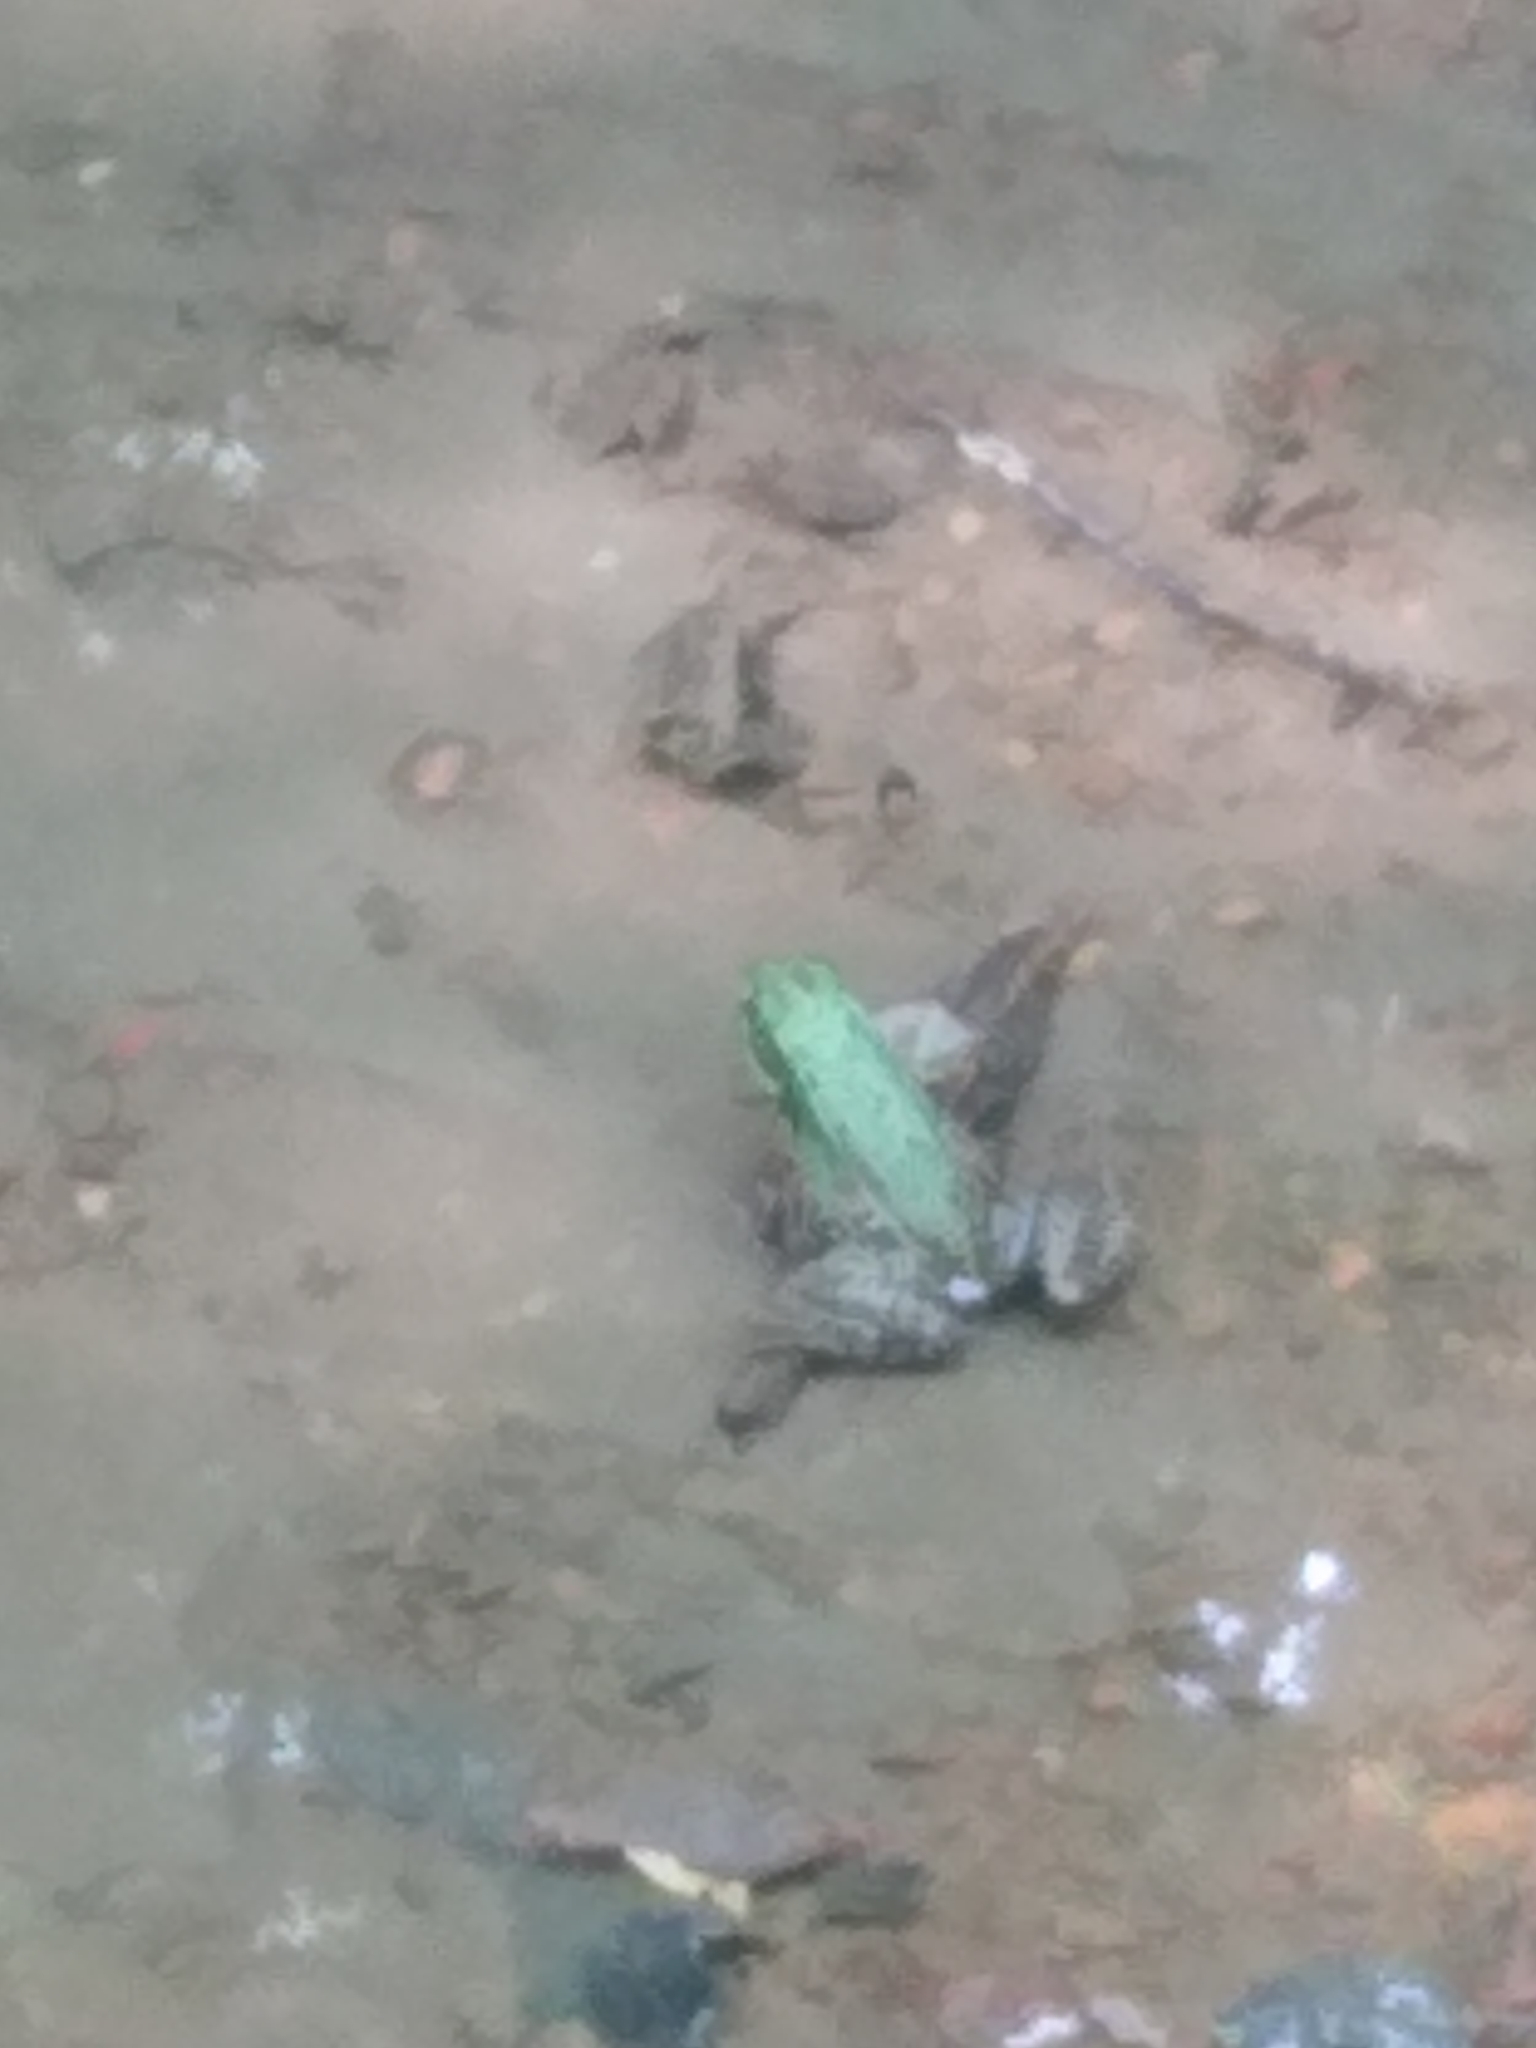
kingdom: Animalia
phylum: Chordata
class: Amphibia
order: Anura
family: Ranidae
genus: Lithobates
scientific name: Lithobates clamitans
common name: Green frog
